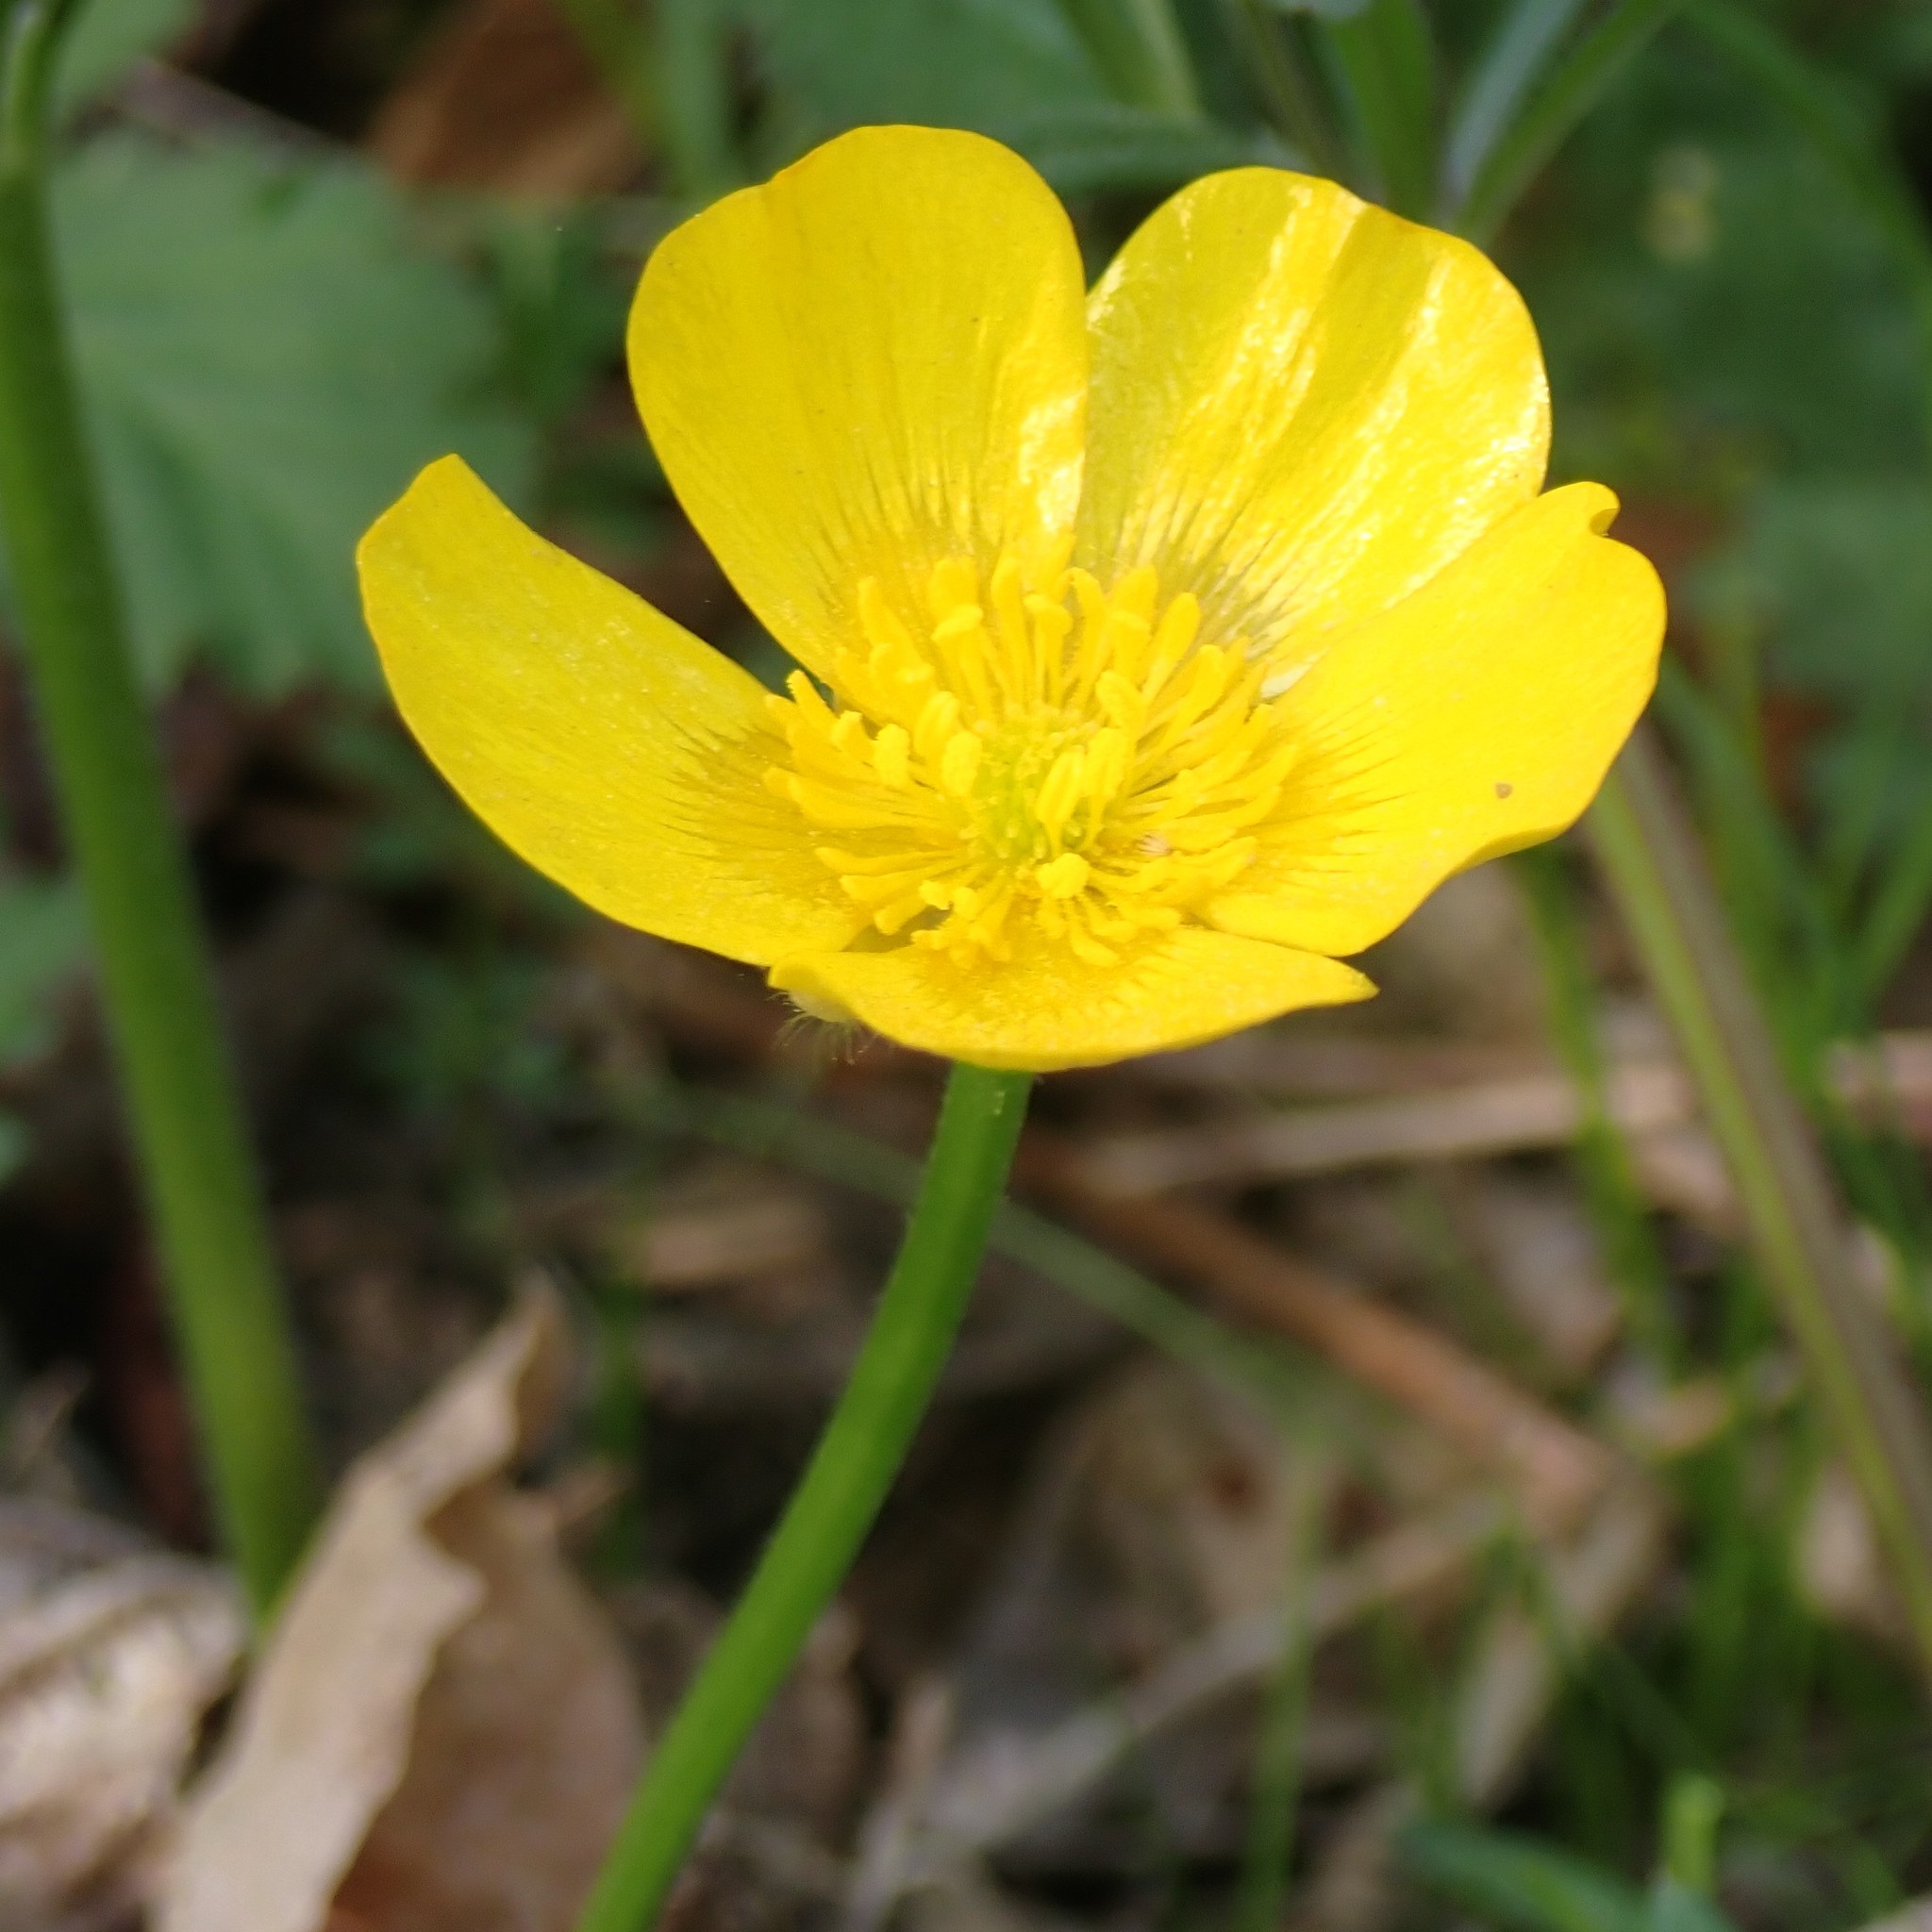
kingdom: Plantae
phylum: Tracheophyta
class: Magnoliopsida
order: Ranunculales
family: Ranunculaceae
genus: Ranunculus
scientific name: Ranunculus repens
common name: Creeping buttercup
